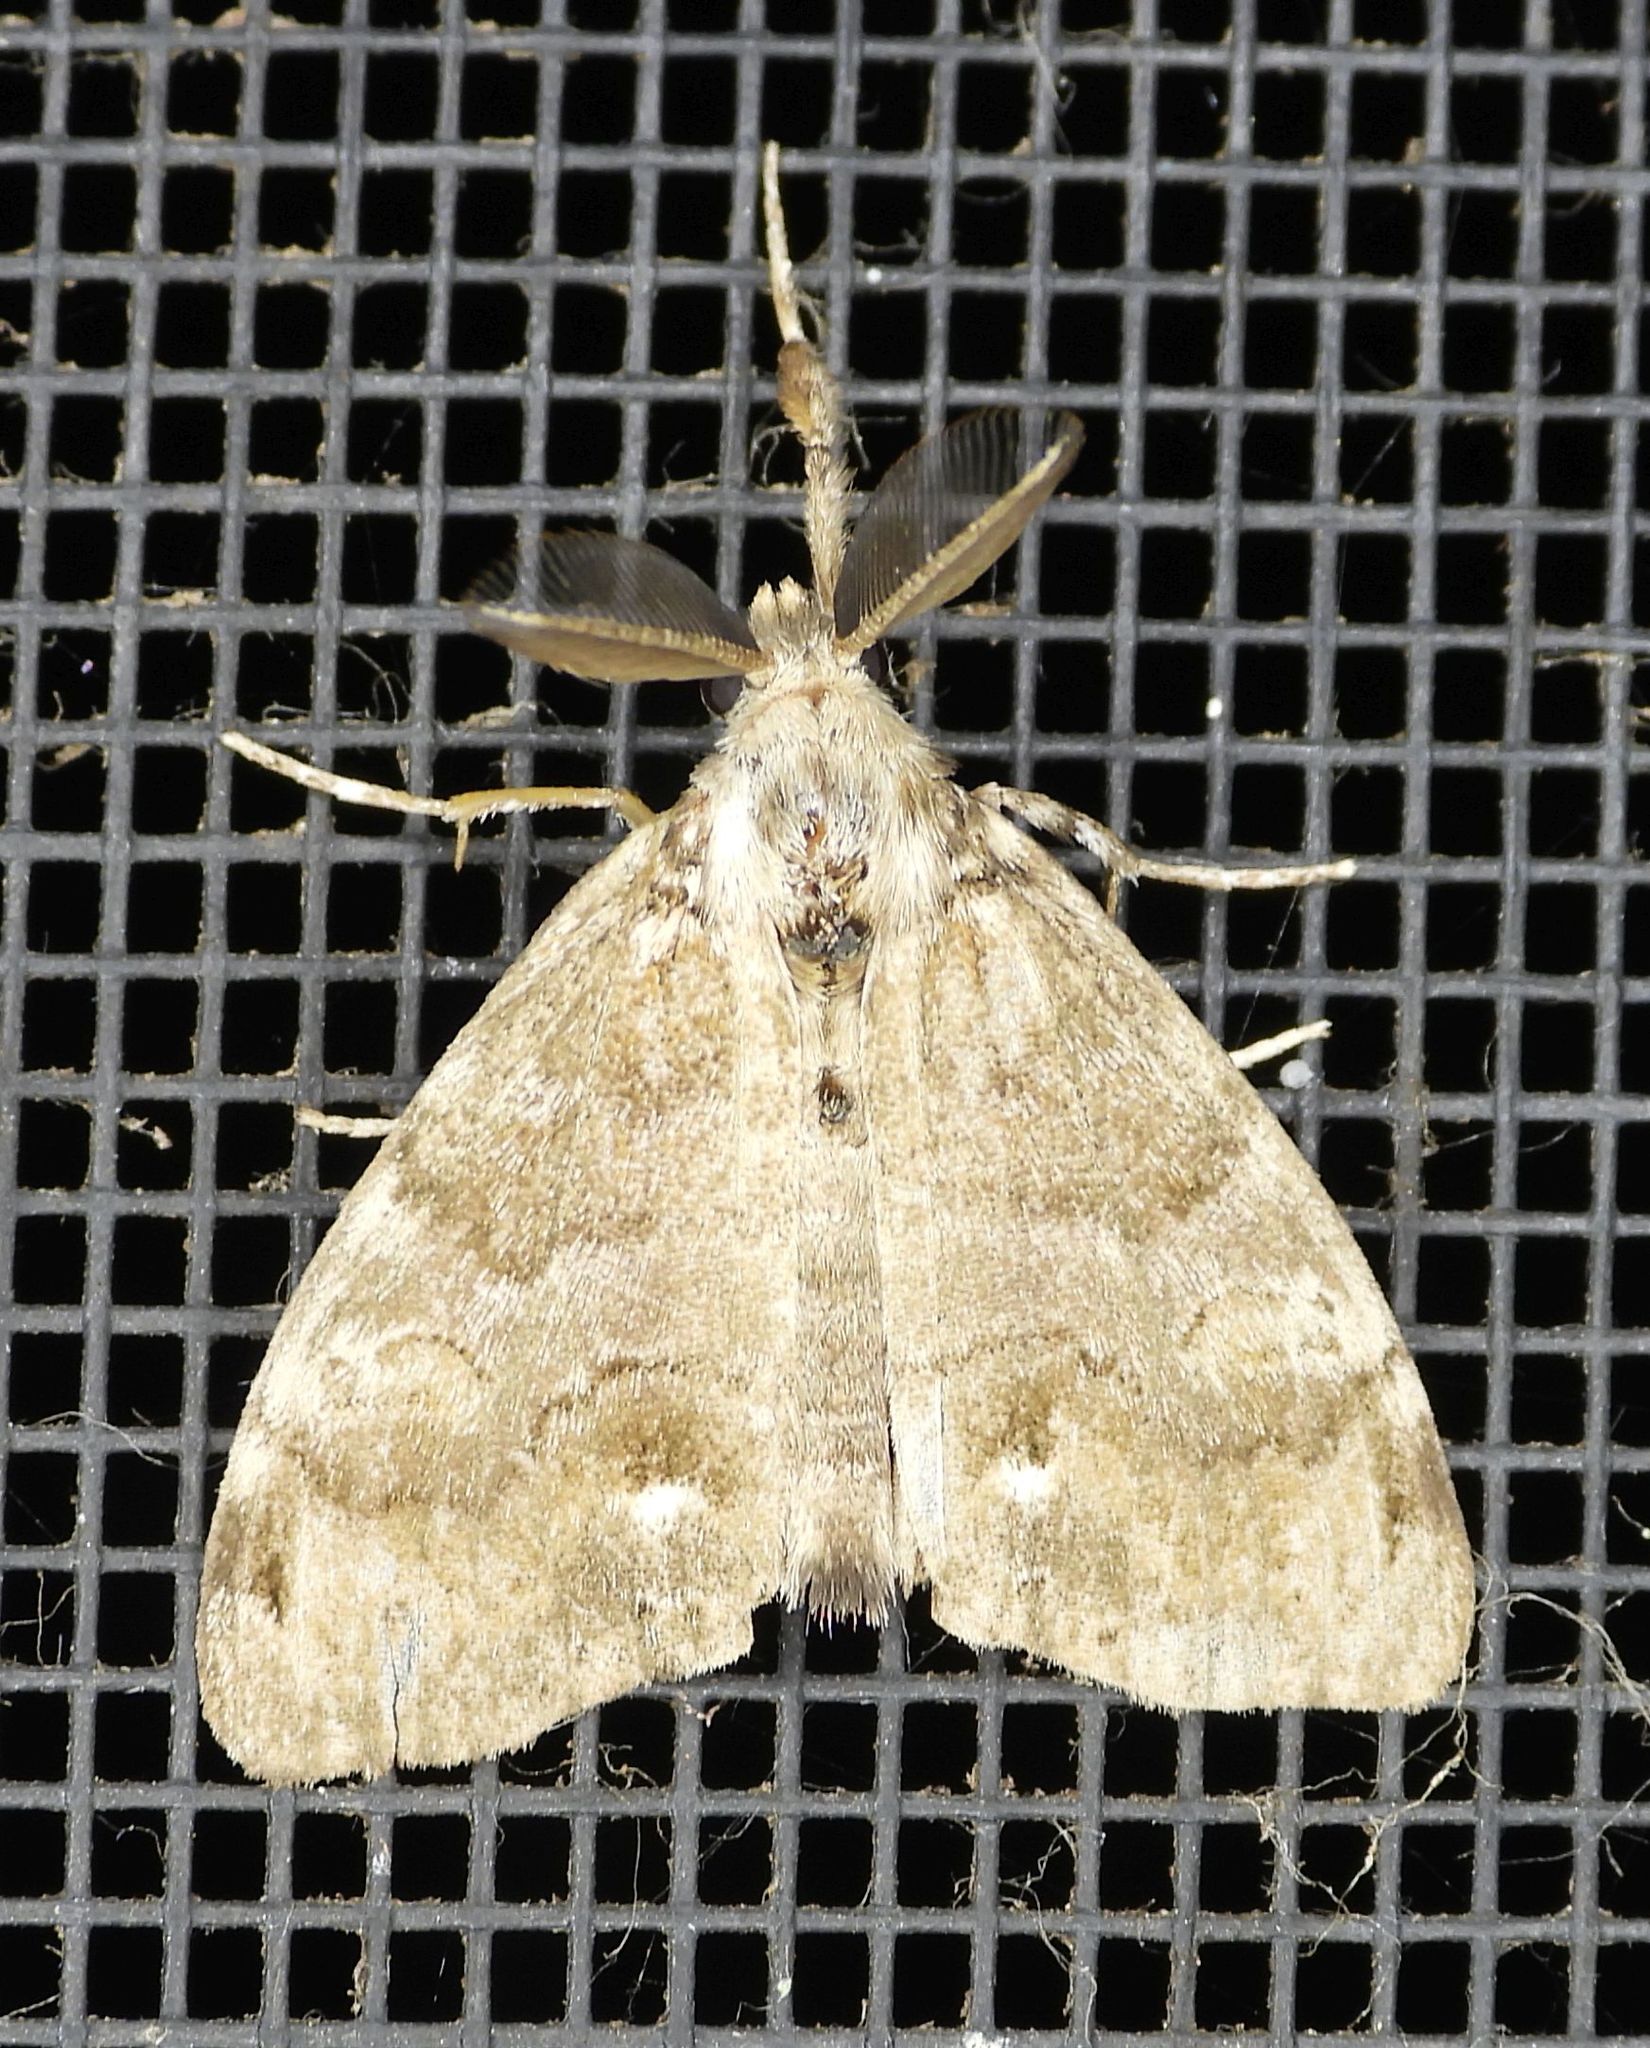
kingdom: Animalia
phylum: Arthropoda
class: Insecta
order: Lepidoptera
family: Erebidae
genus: Orgyia
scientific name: Orgyia leucostigma
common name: White-marked tussock moth
